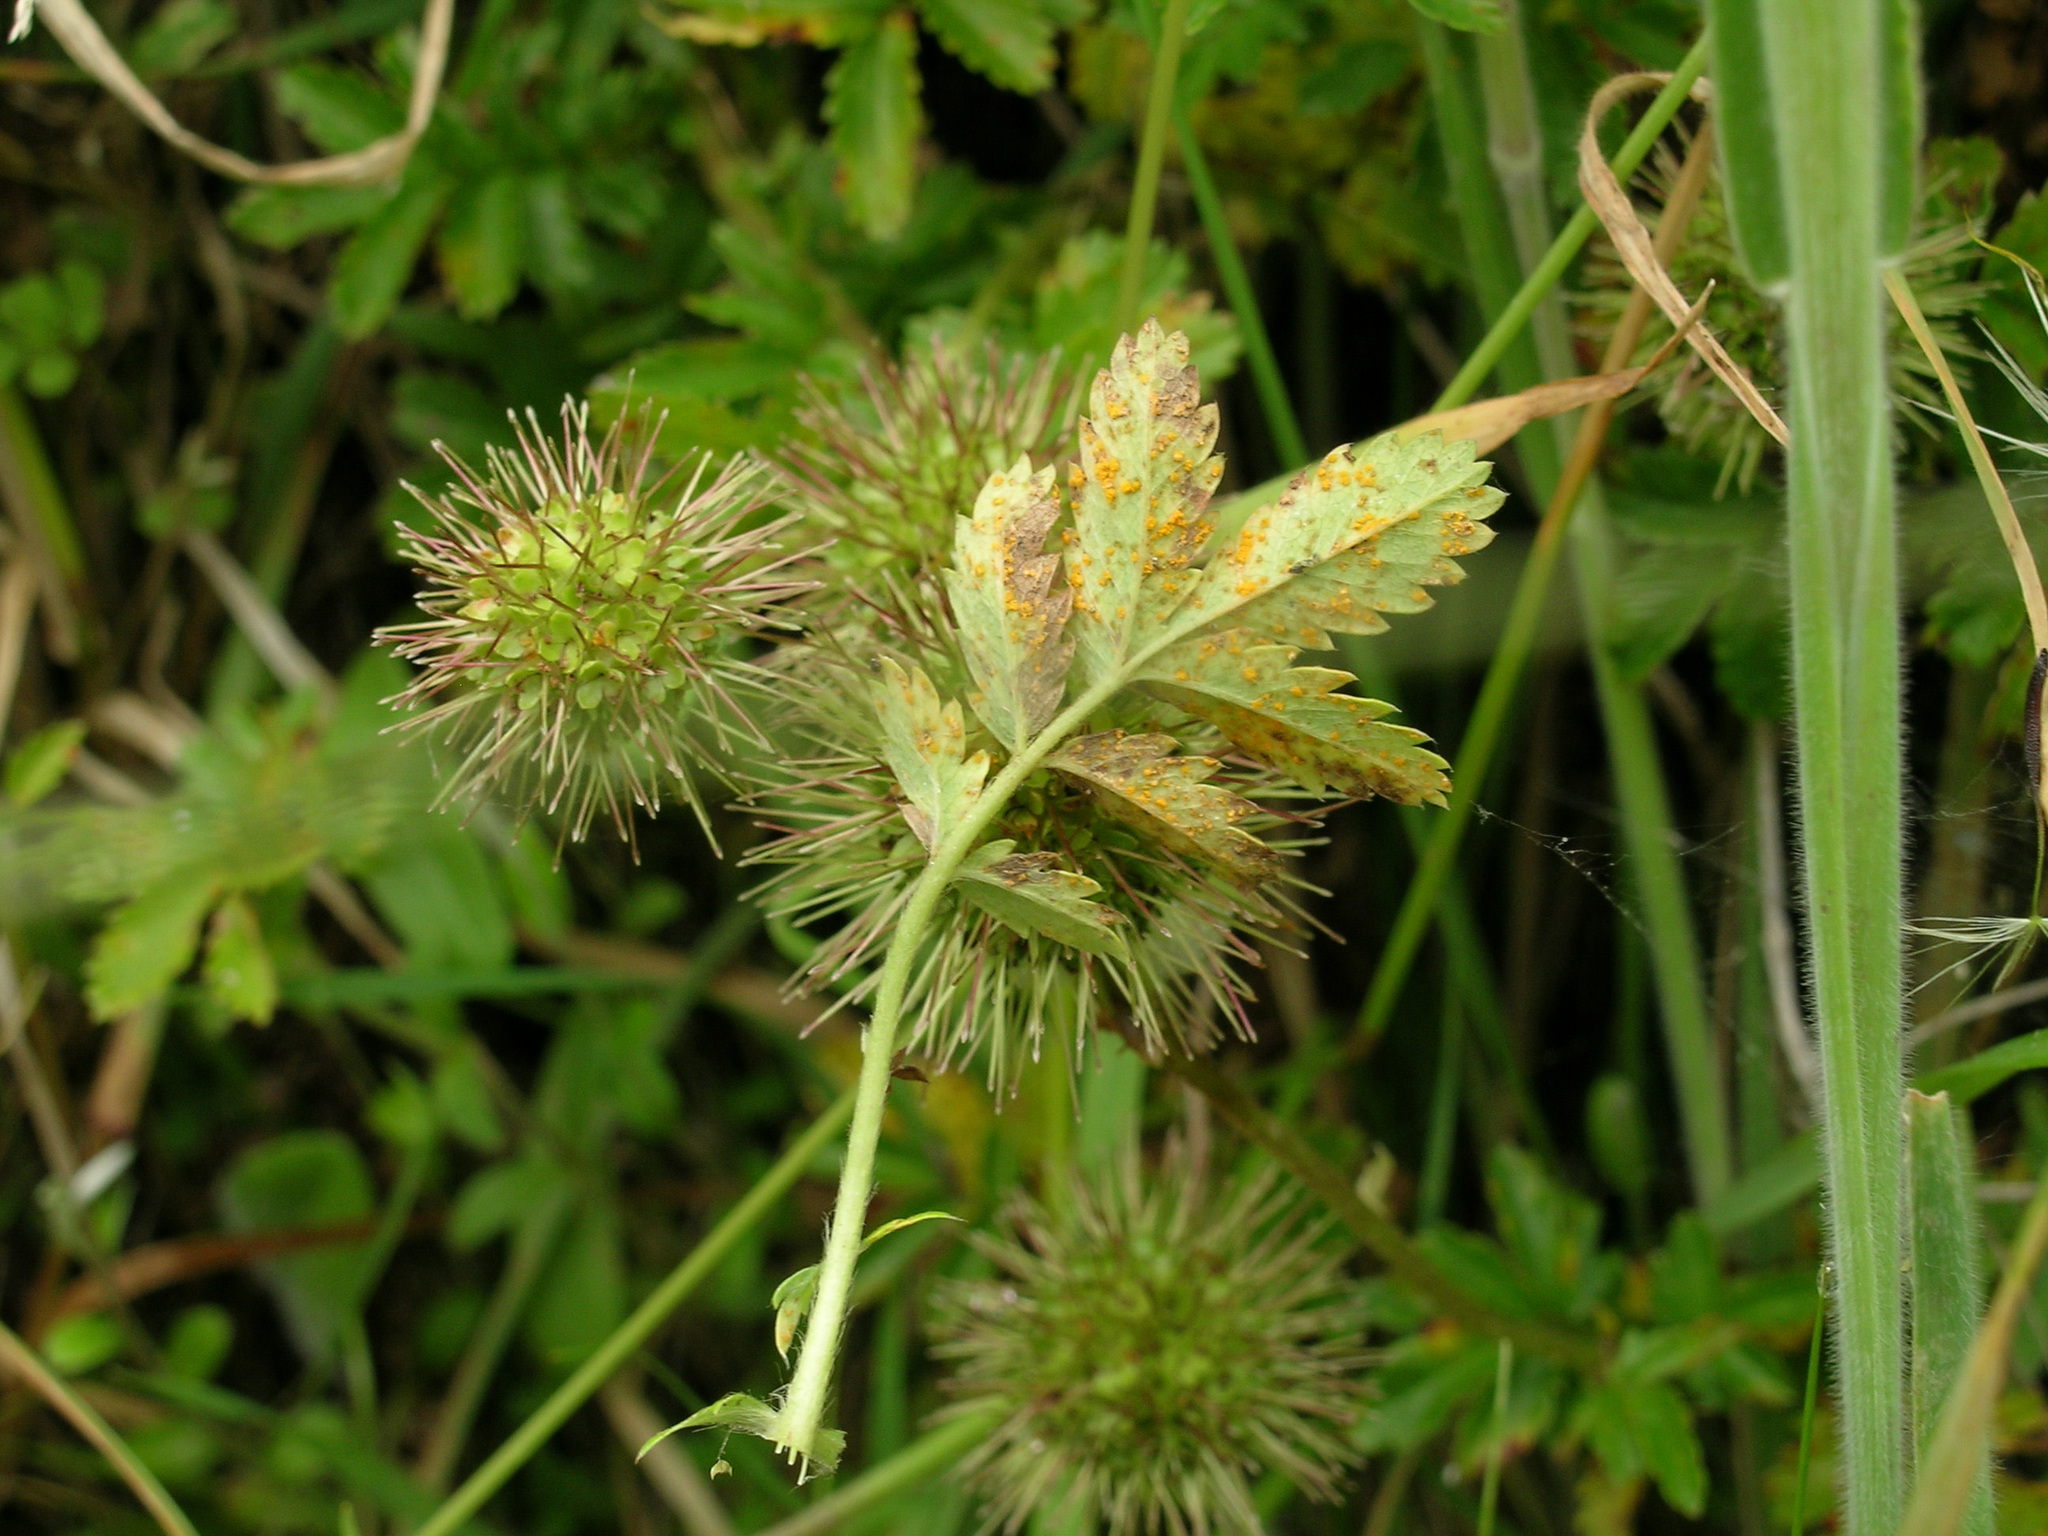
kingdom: Fungi
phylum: Basidiomycota
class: Pucciniomycetes
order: Pucciniales
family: Phragmidiaceae
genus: Phragmidium
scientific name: Phragmidium subsimile
